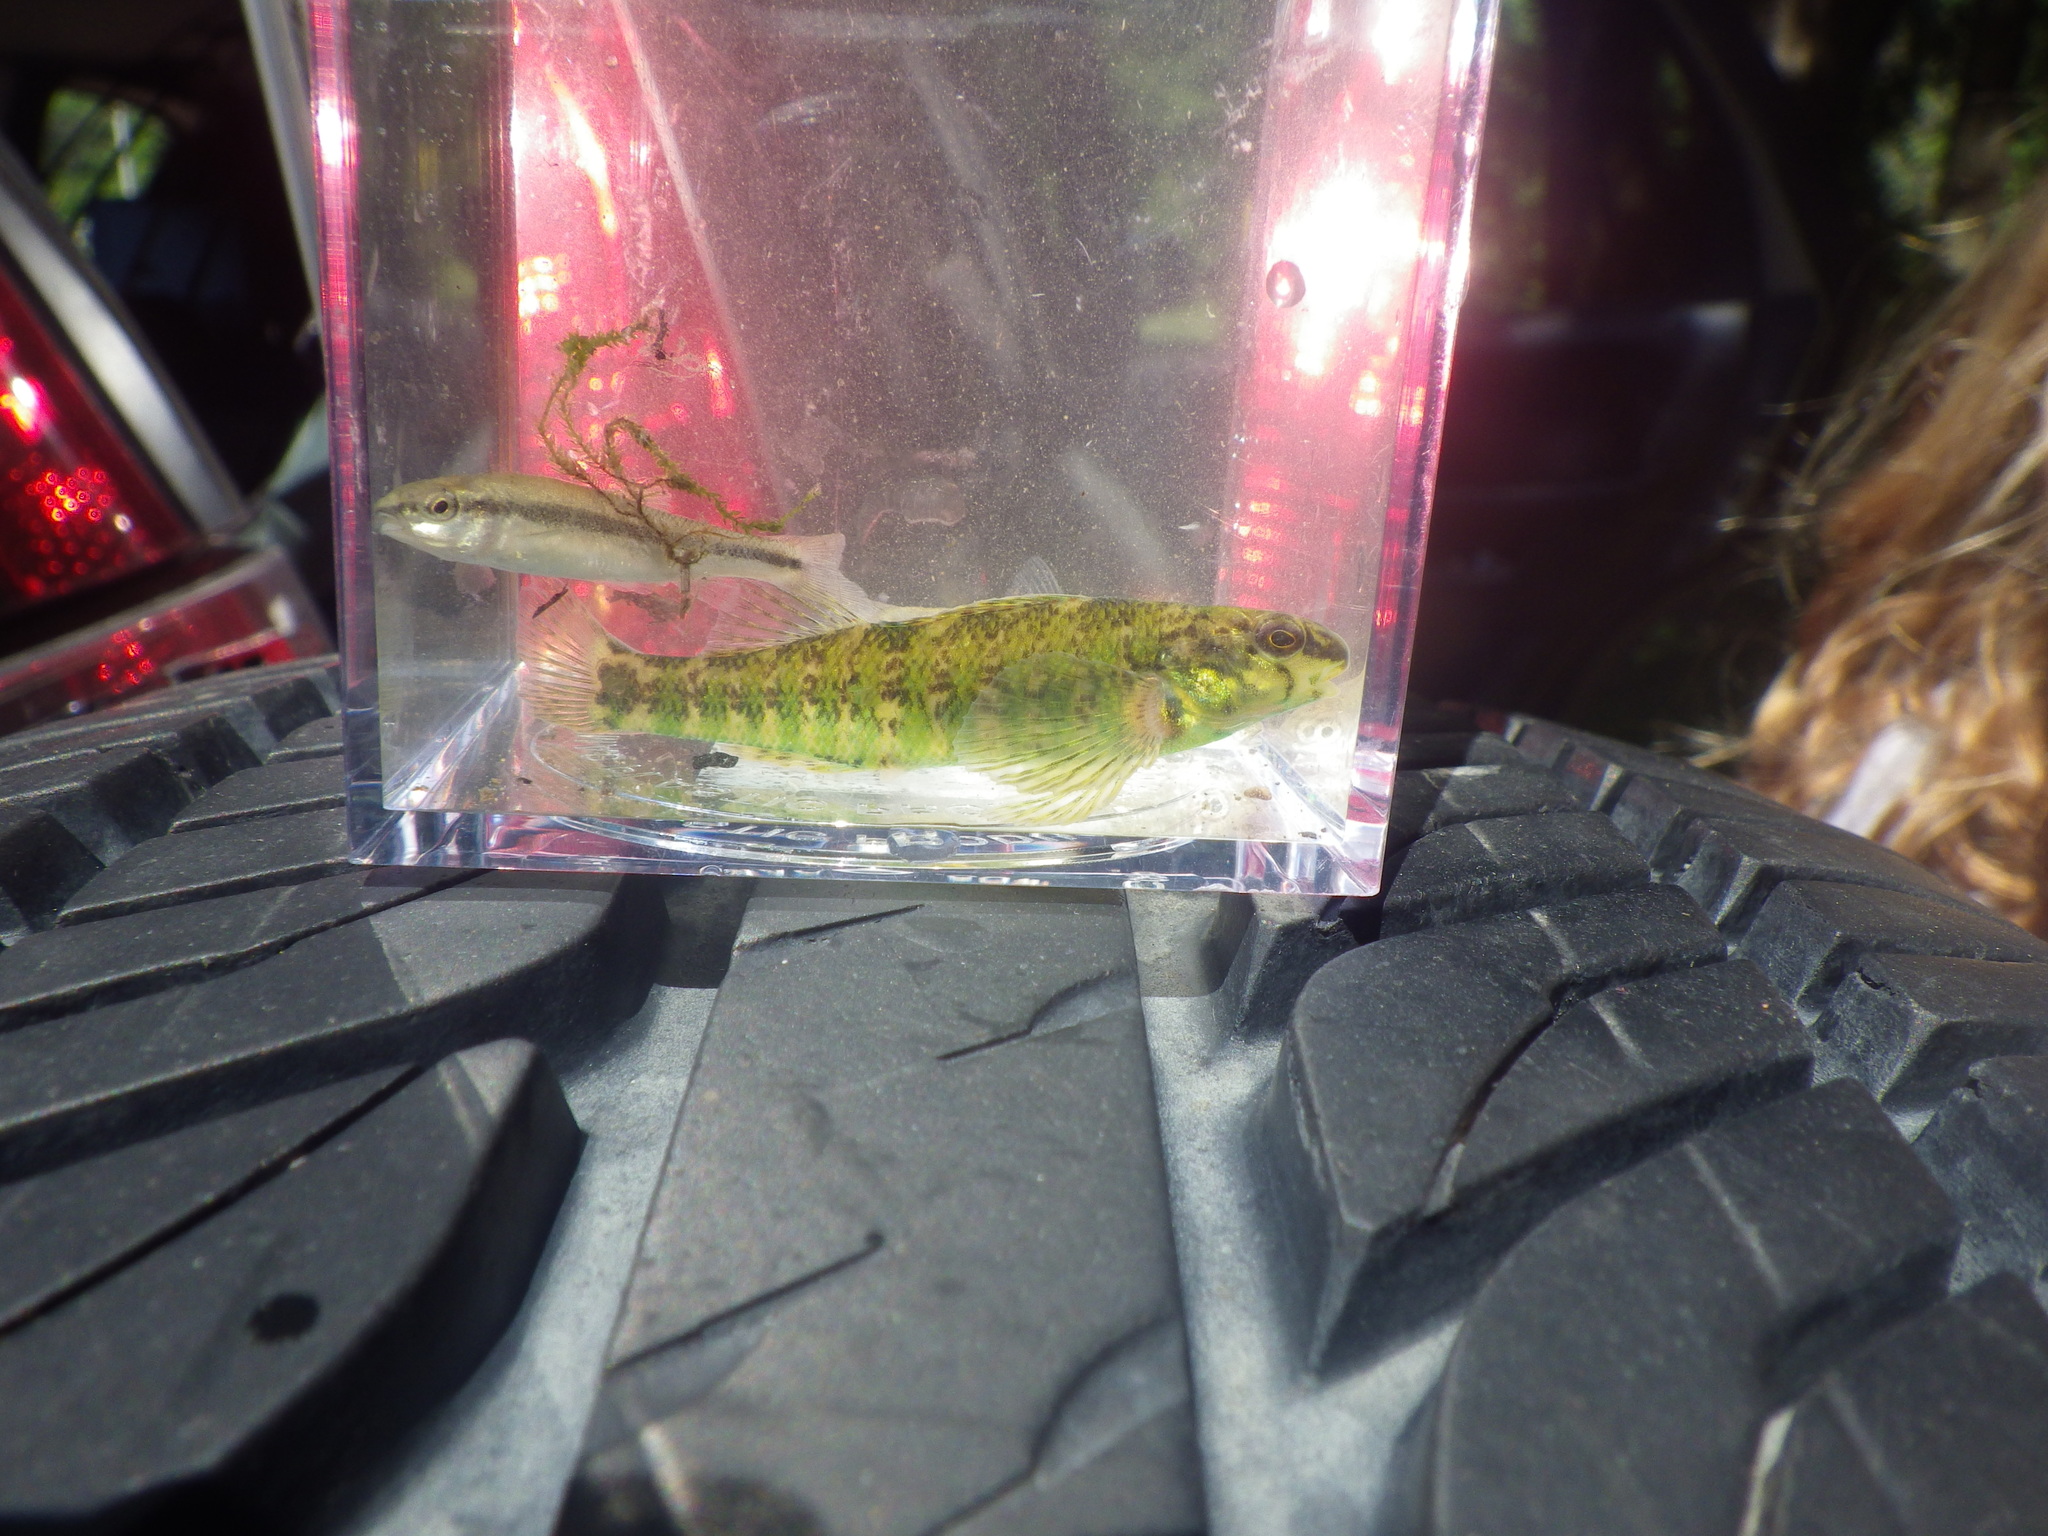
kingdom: Animalia
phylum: Chordata
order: Perciformes
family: Percidae
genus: Etheostoma
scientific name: Etheostoma zonale
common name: Banded darter
